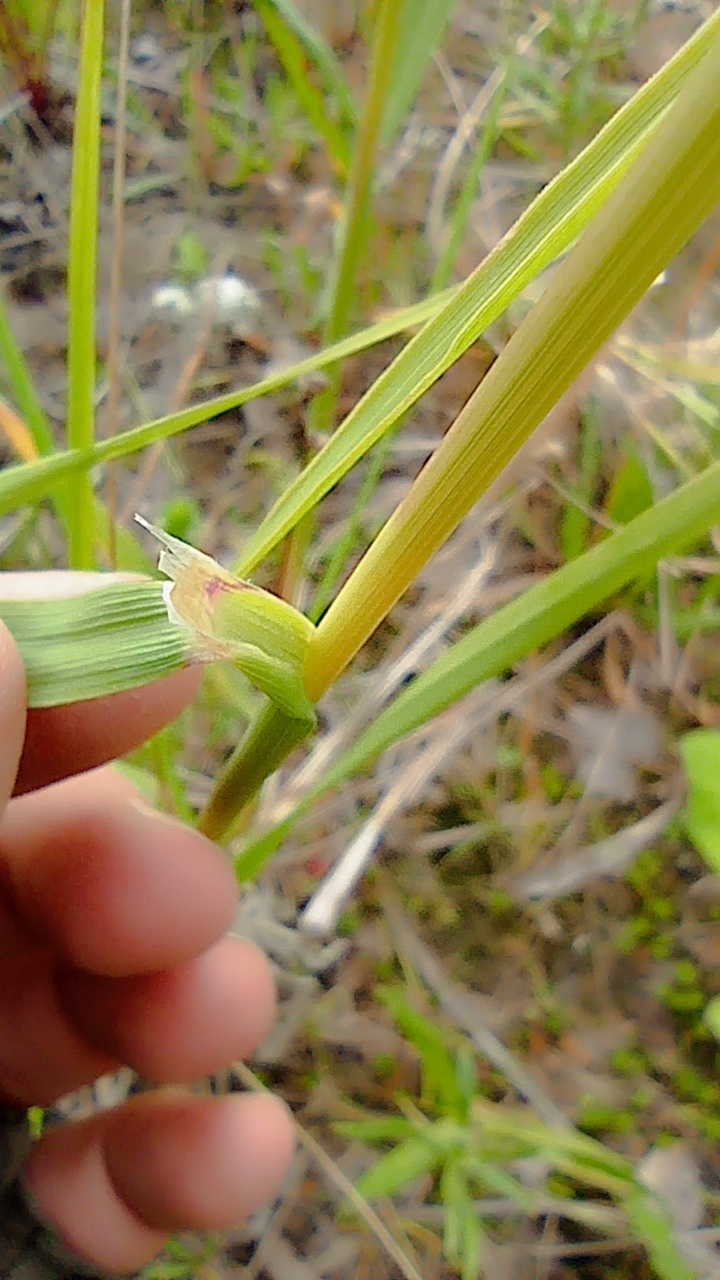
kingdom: Plantae
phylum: Tracheophyta
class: Liliopsida
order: Poales
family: Poaceae
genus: Calamagrostis
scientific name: Calamagrostis epigejos
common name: Wood small-reed
